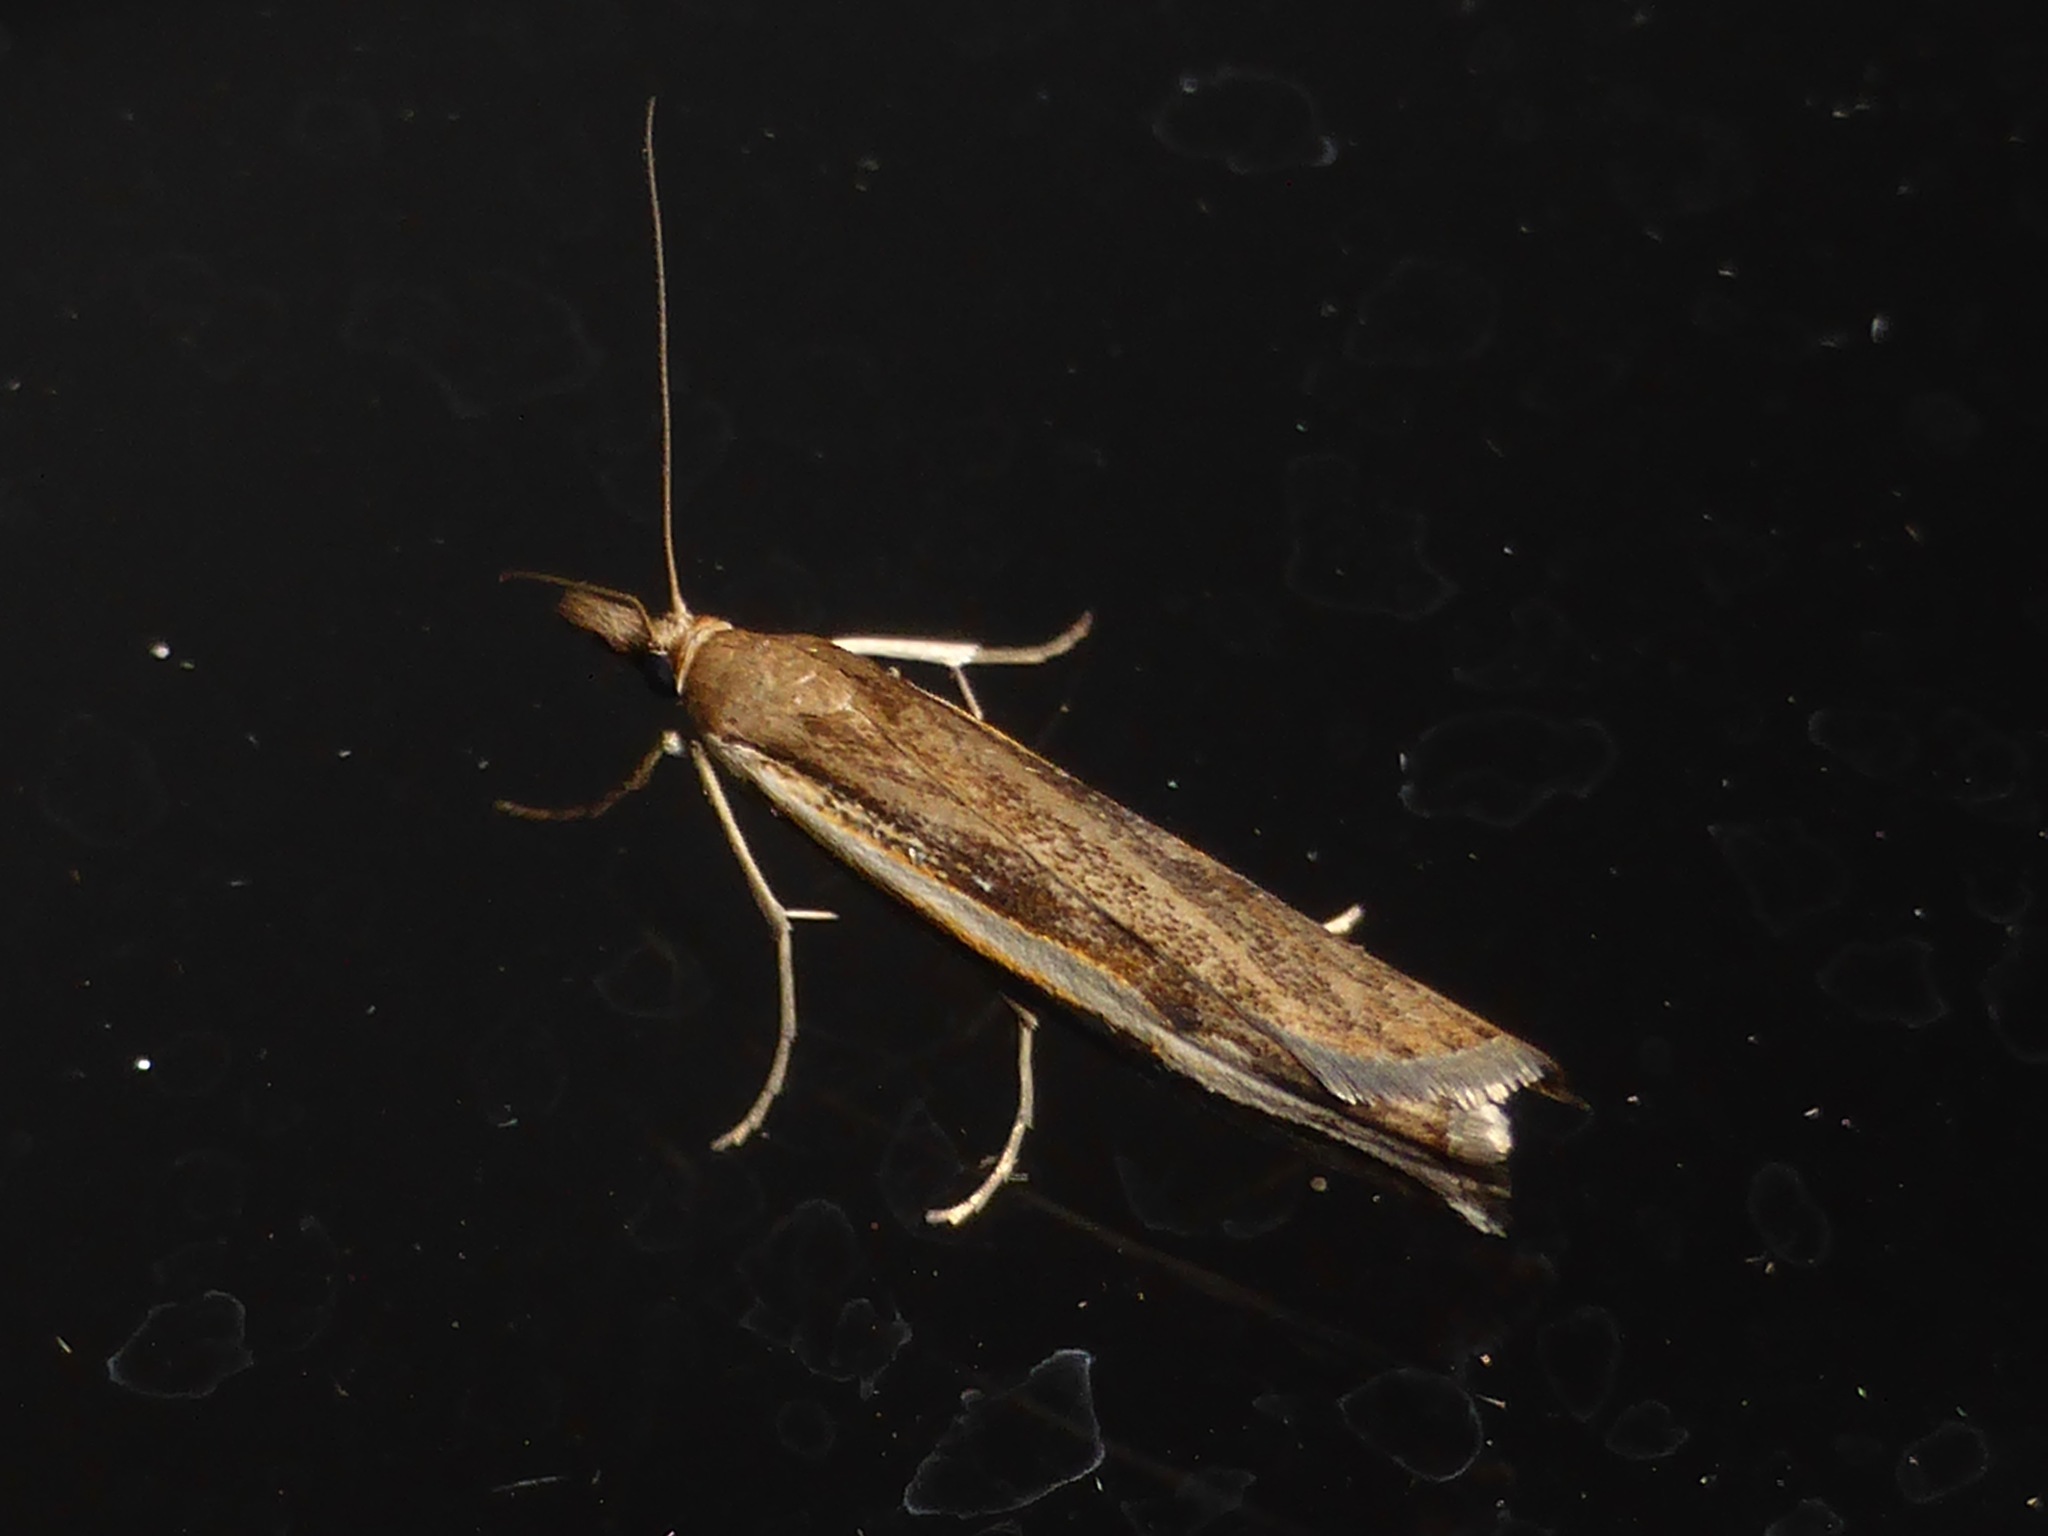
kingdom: Animalia
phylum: Arthropoda
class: Insecta
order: Lepidoptera
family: Crambidae
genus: Orocrambus
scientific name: Orocrambus flexuosellus
